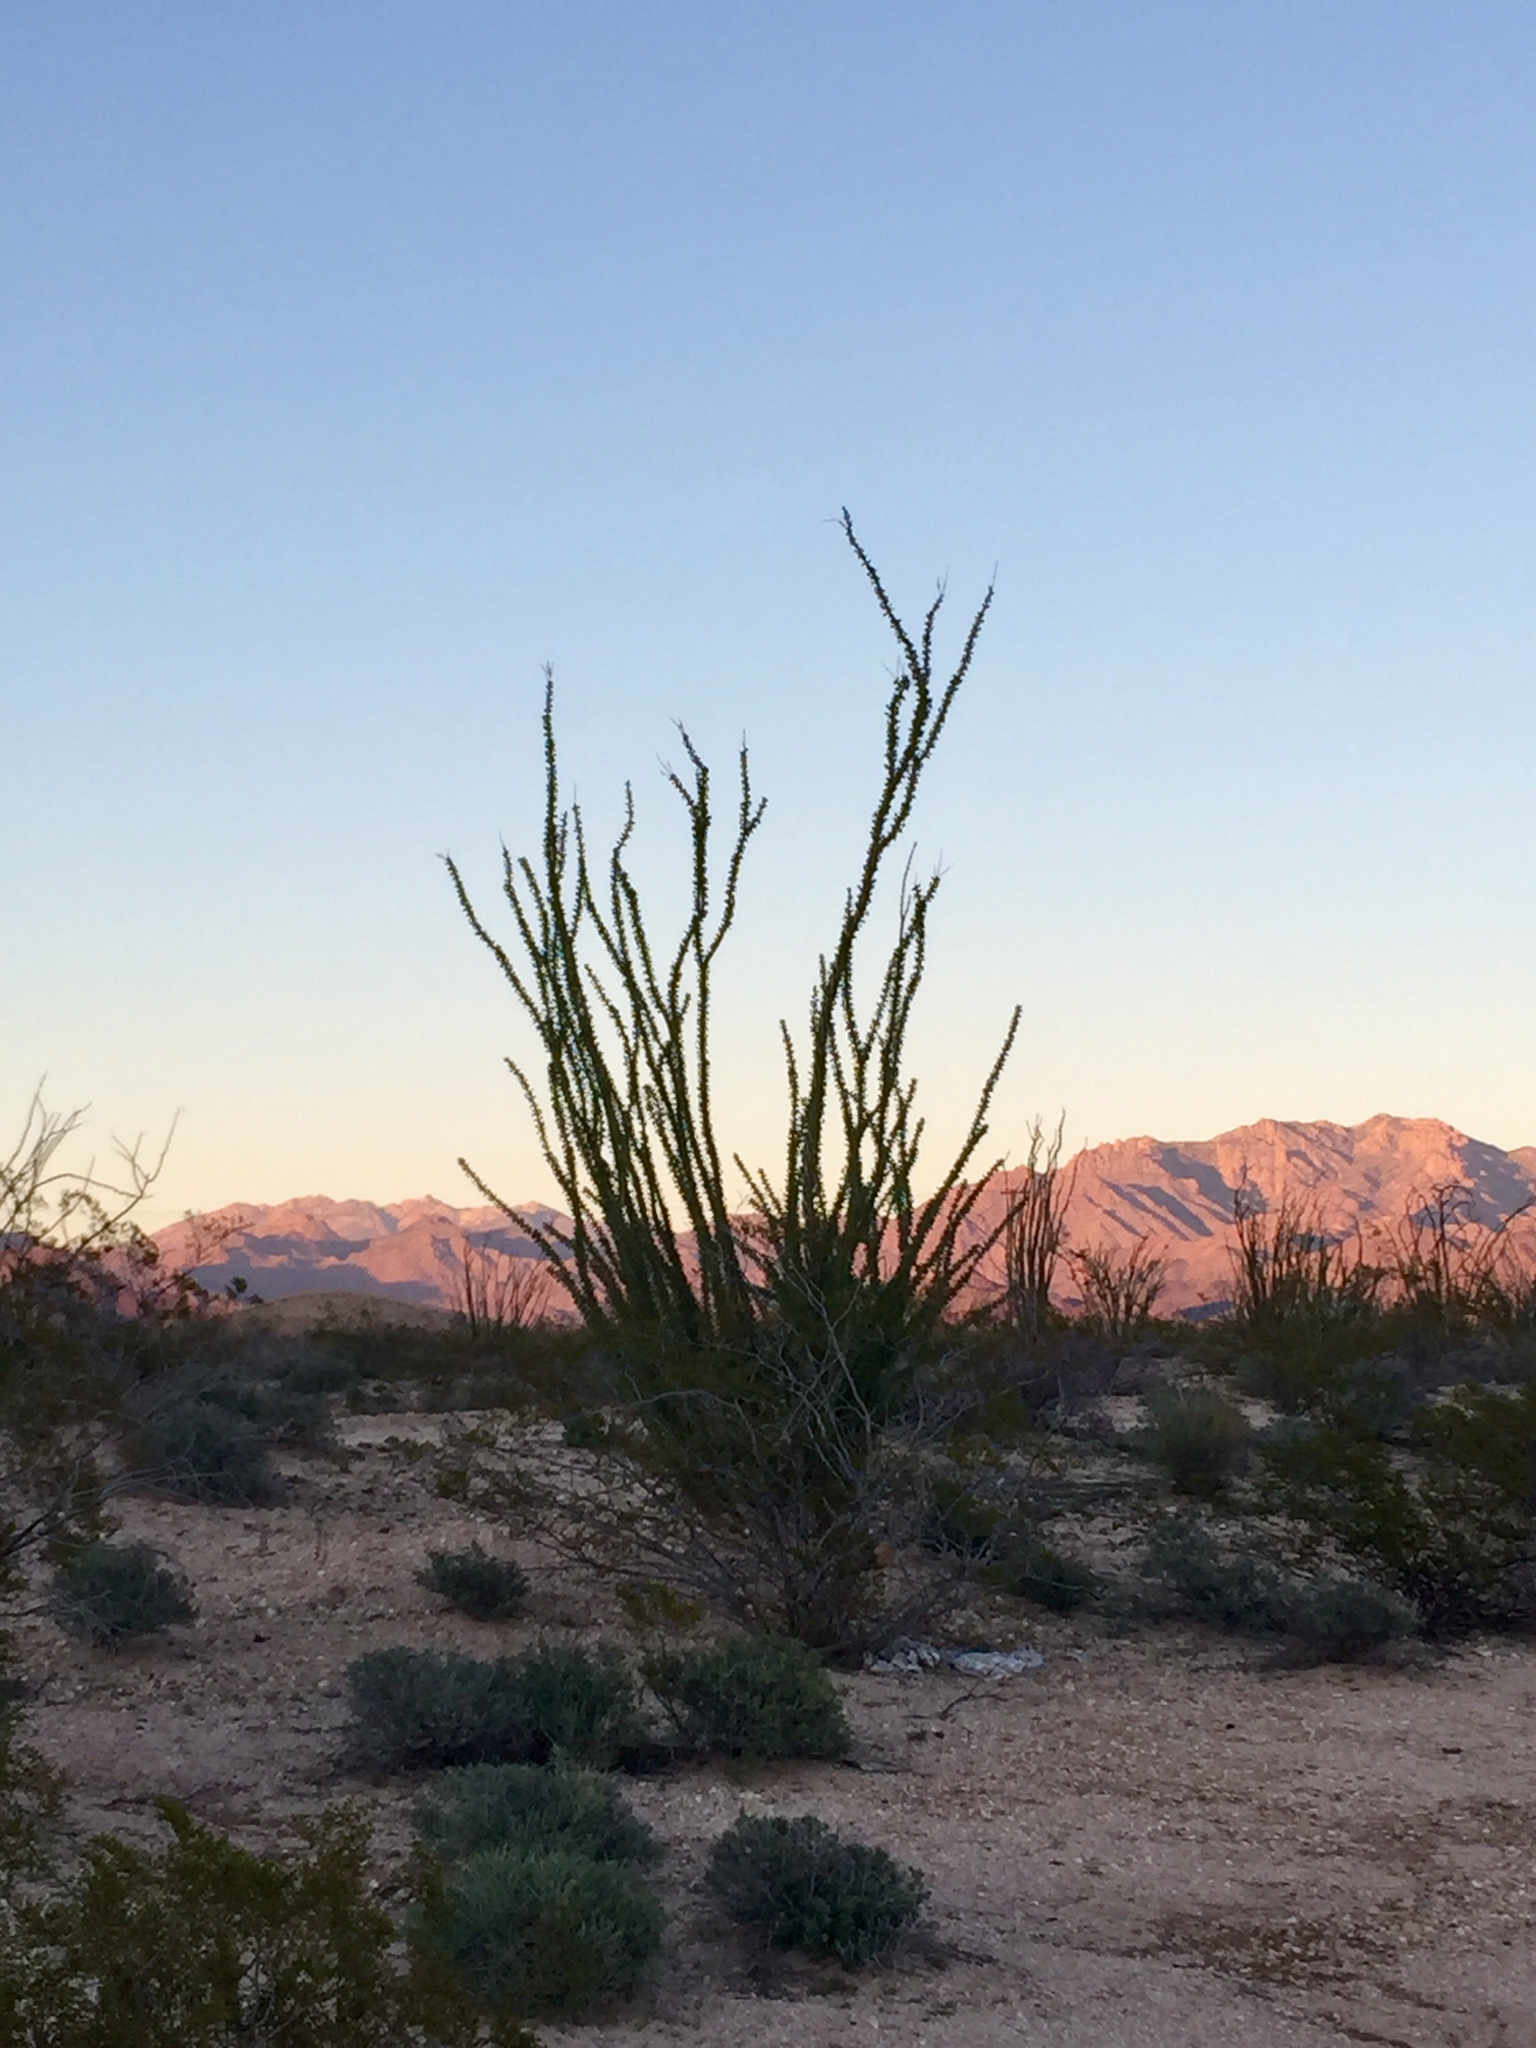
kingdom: Plantae
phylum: Tracheophyta
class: Magnoliopsida
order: Ericales
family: Fouquieriaceae
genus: Fouquieria
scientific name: Fouquieria splendens
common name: Vine-cactus
